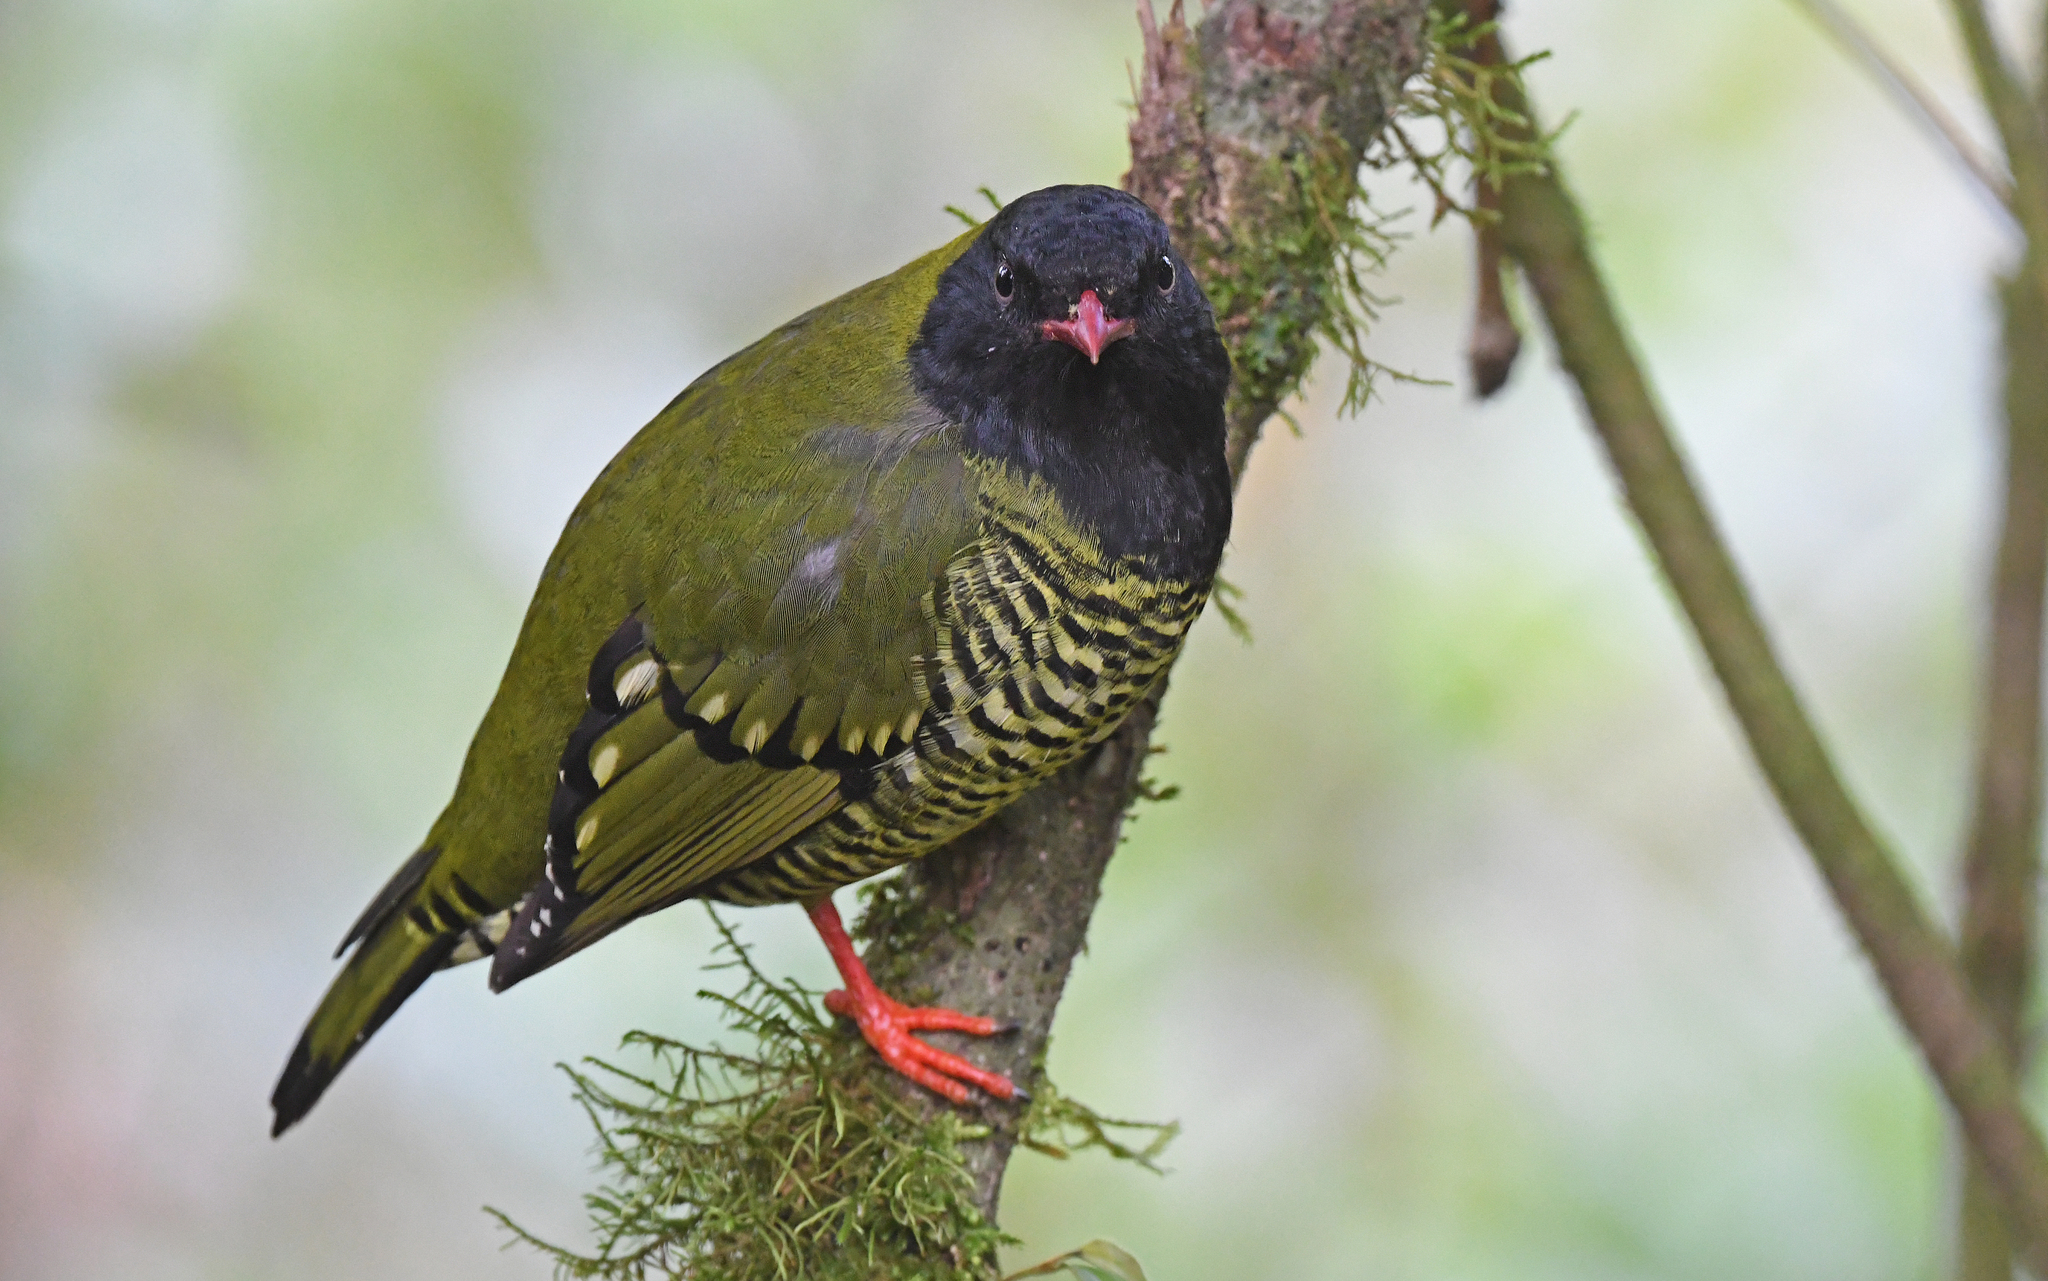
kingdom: Animalia
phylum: Chordata
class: Aves
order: Passeriformes
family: Cotingidae
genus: Pipreola
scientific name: Pipreola arcuata
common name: Barred fruiteater
